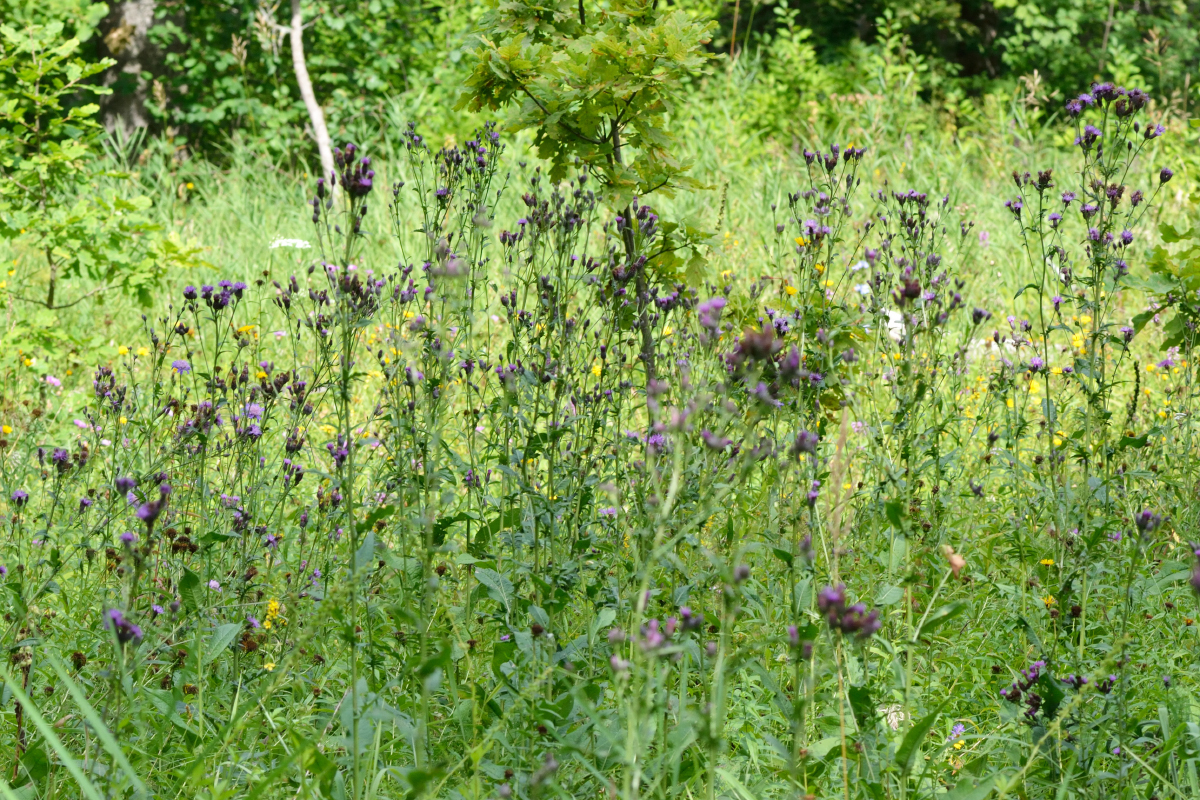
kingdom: Plantae
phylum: Tracheophyta
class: Magnoliopsida
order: Asterales
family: Asteraceae
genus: Serratula
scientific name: Serratula tinctoria
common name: Saw-wort
